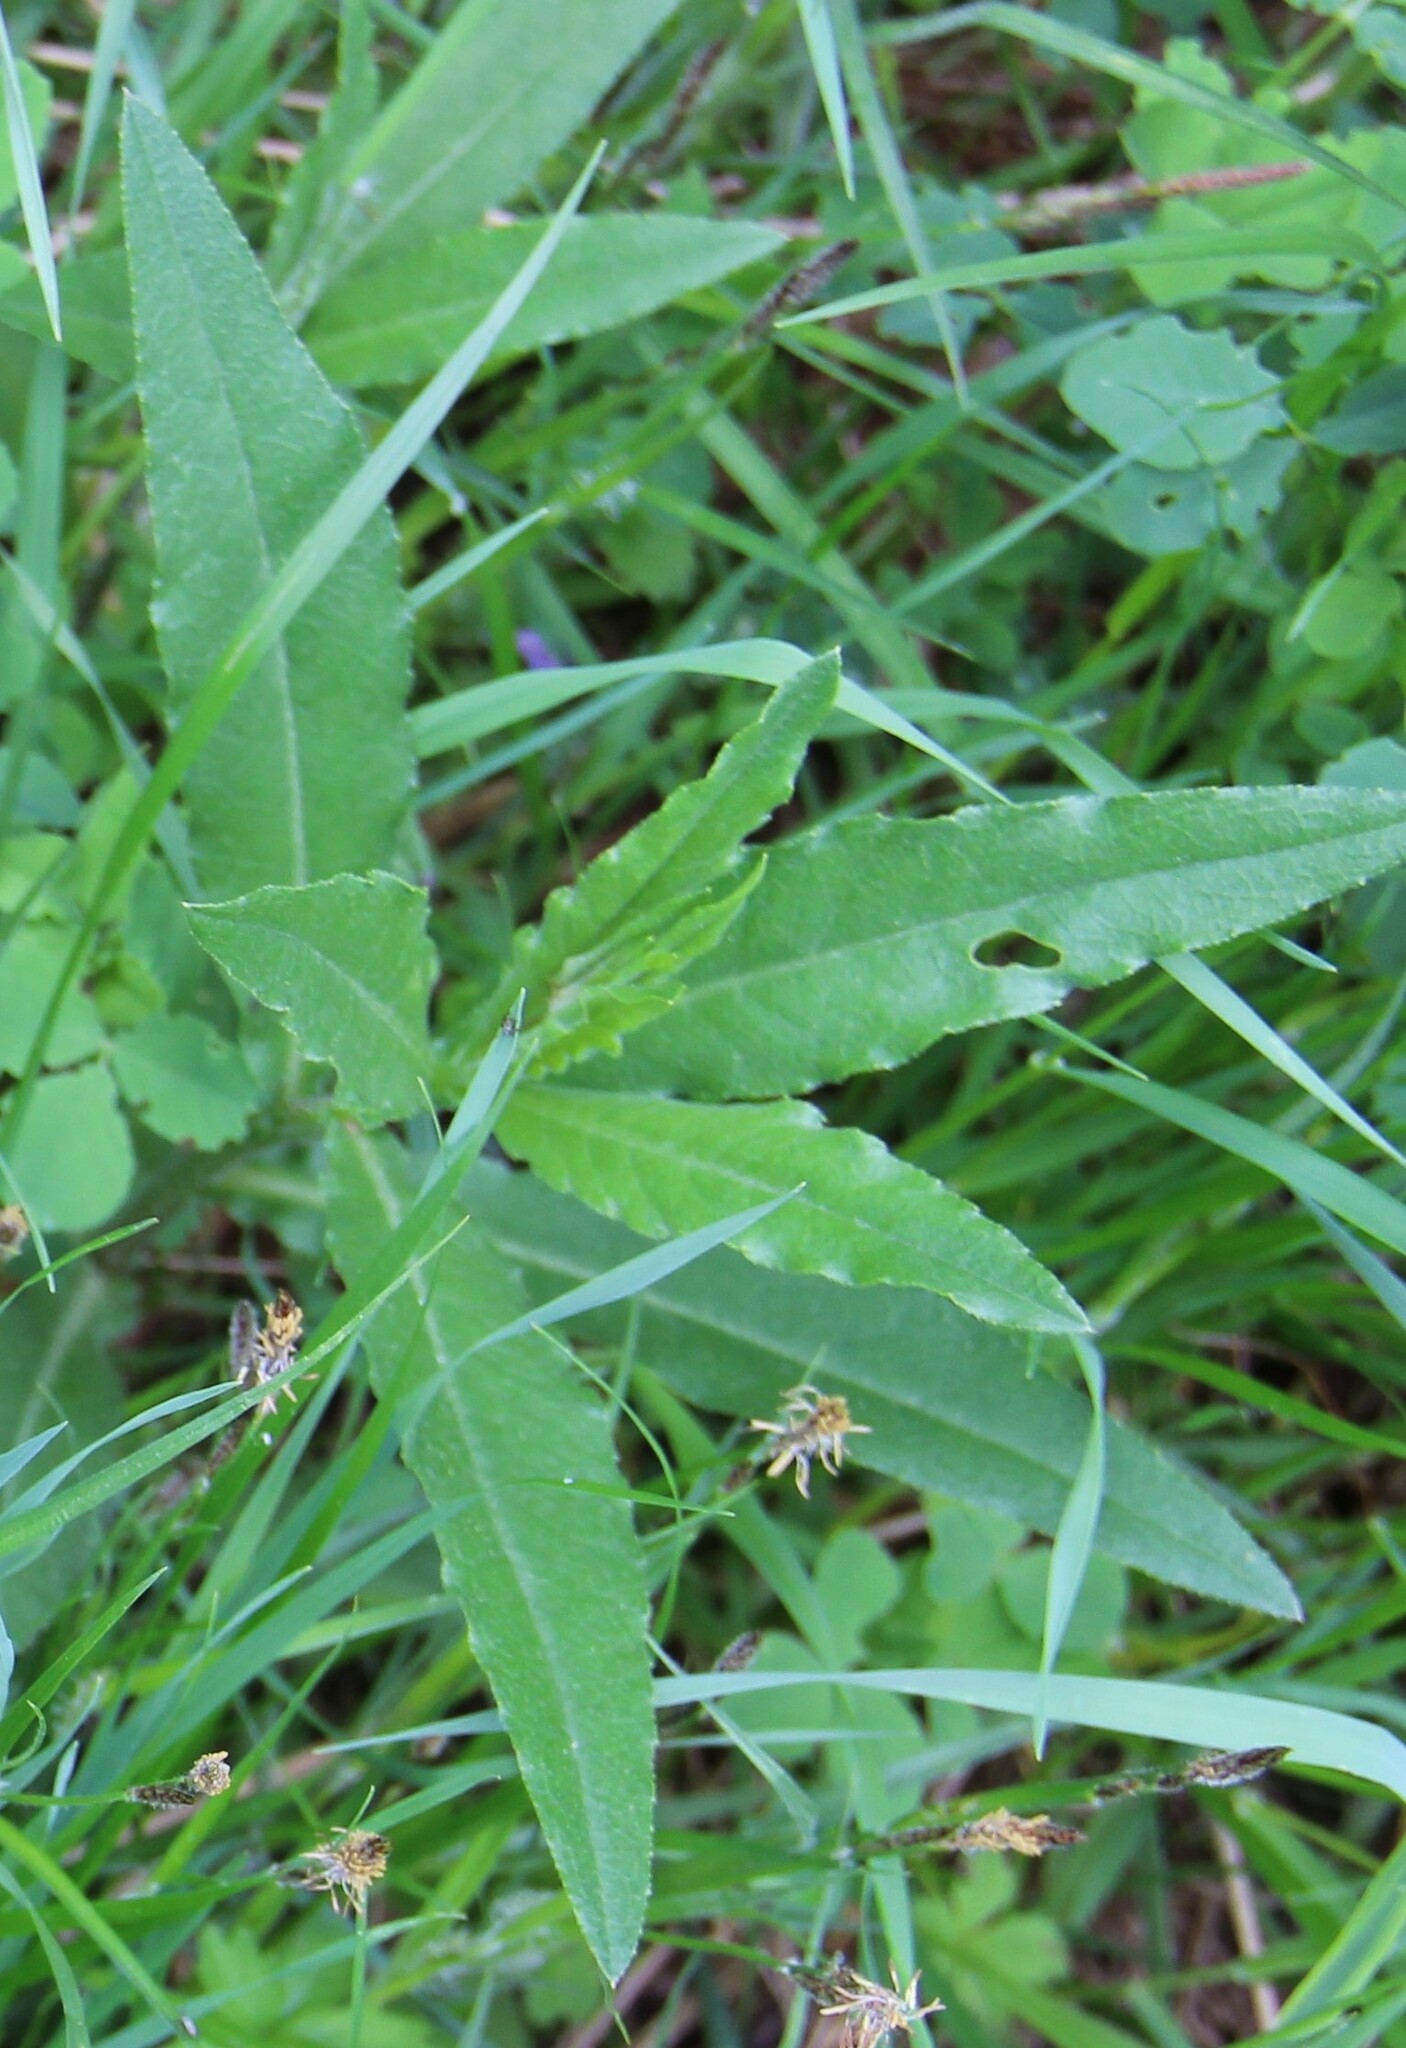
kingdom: Plantae
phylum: Tracheophyta
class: Magnoliopsida
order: Asterales
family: Asteraceae
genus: Cirsium
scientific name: Cirsium arvense
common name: Creeping thistle
